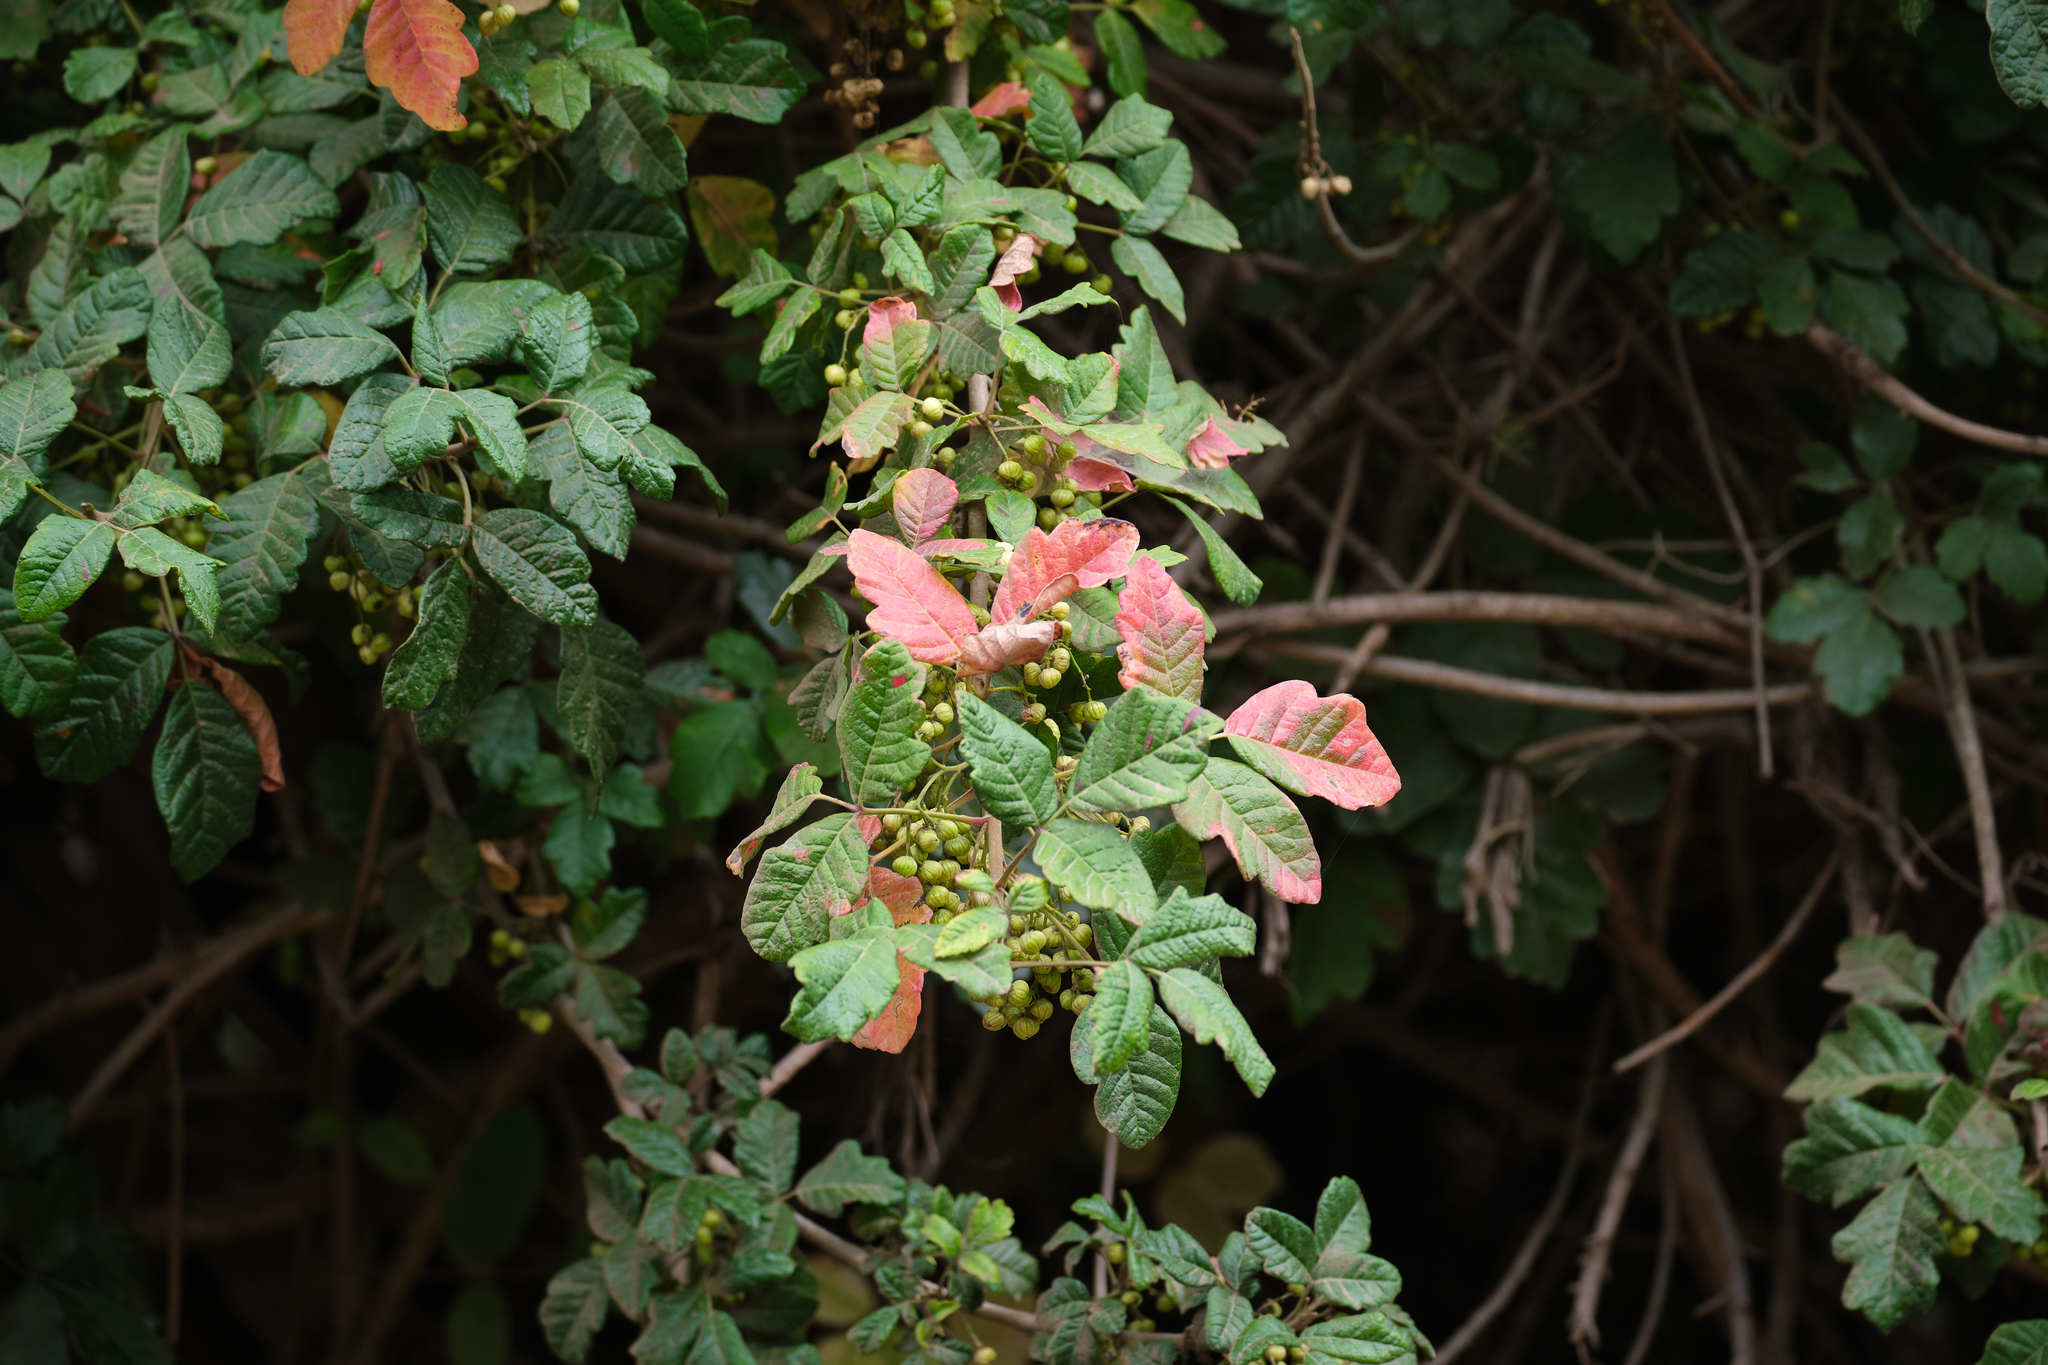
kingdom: Plantae
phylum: Tracheophyta
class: Magnoliopsida
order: Sapindales
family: Anacardiaceae
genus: Toxicodendron
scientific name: Toxicodendron diversilobum
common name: Pacific poison-oak
